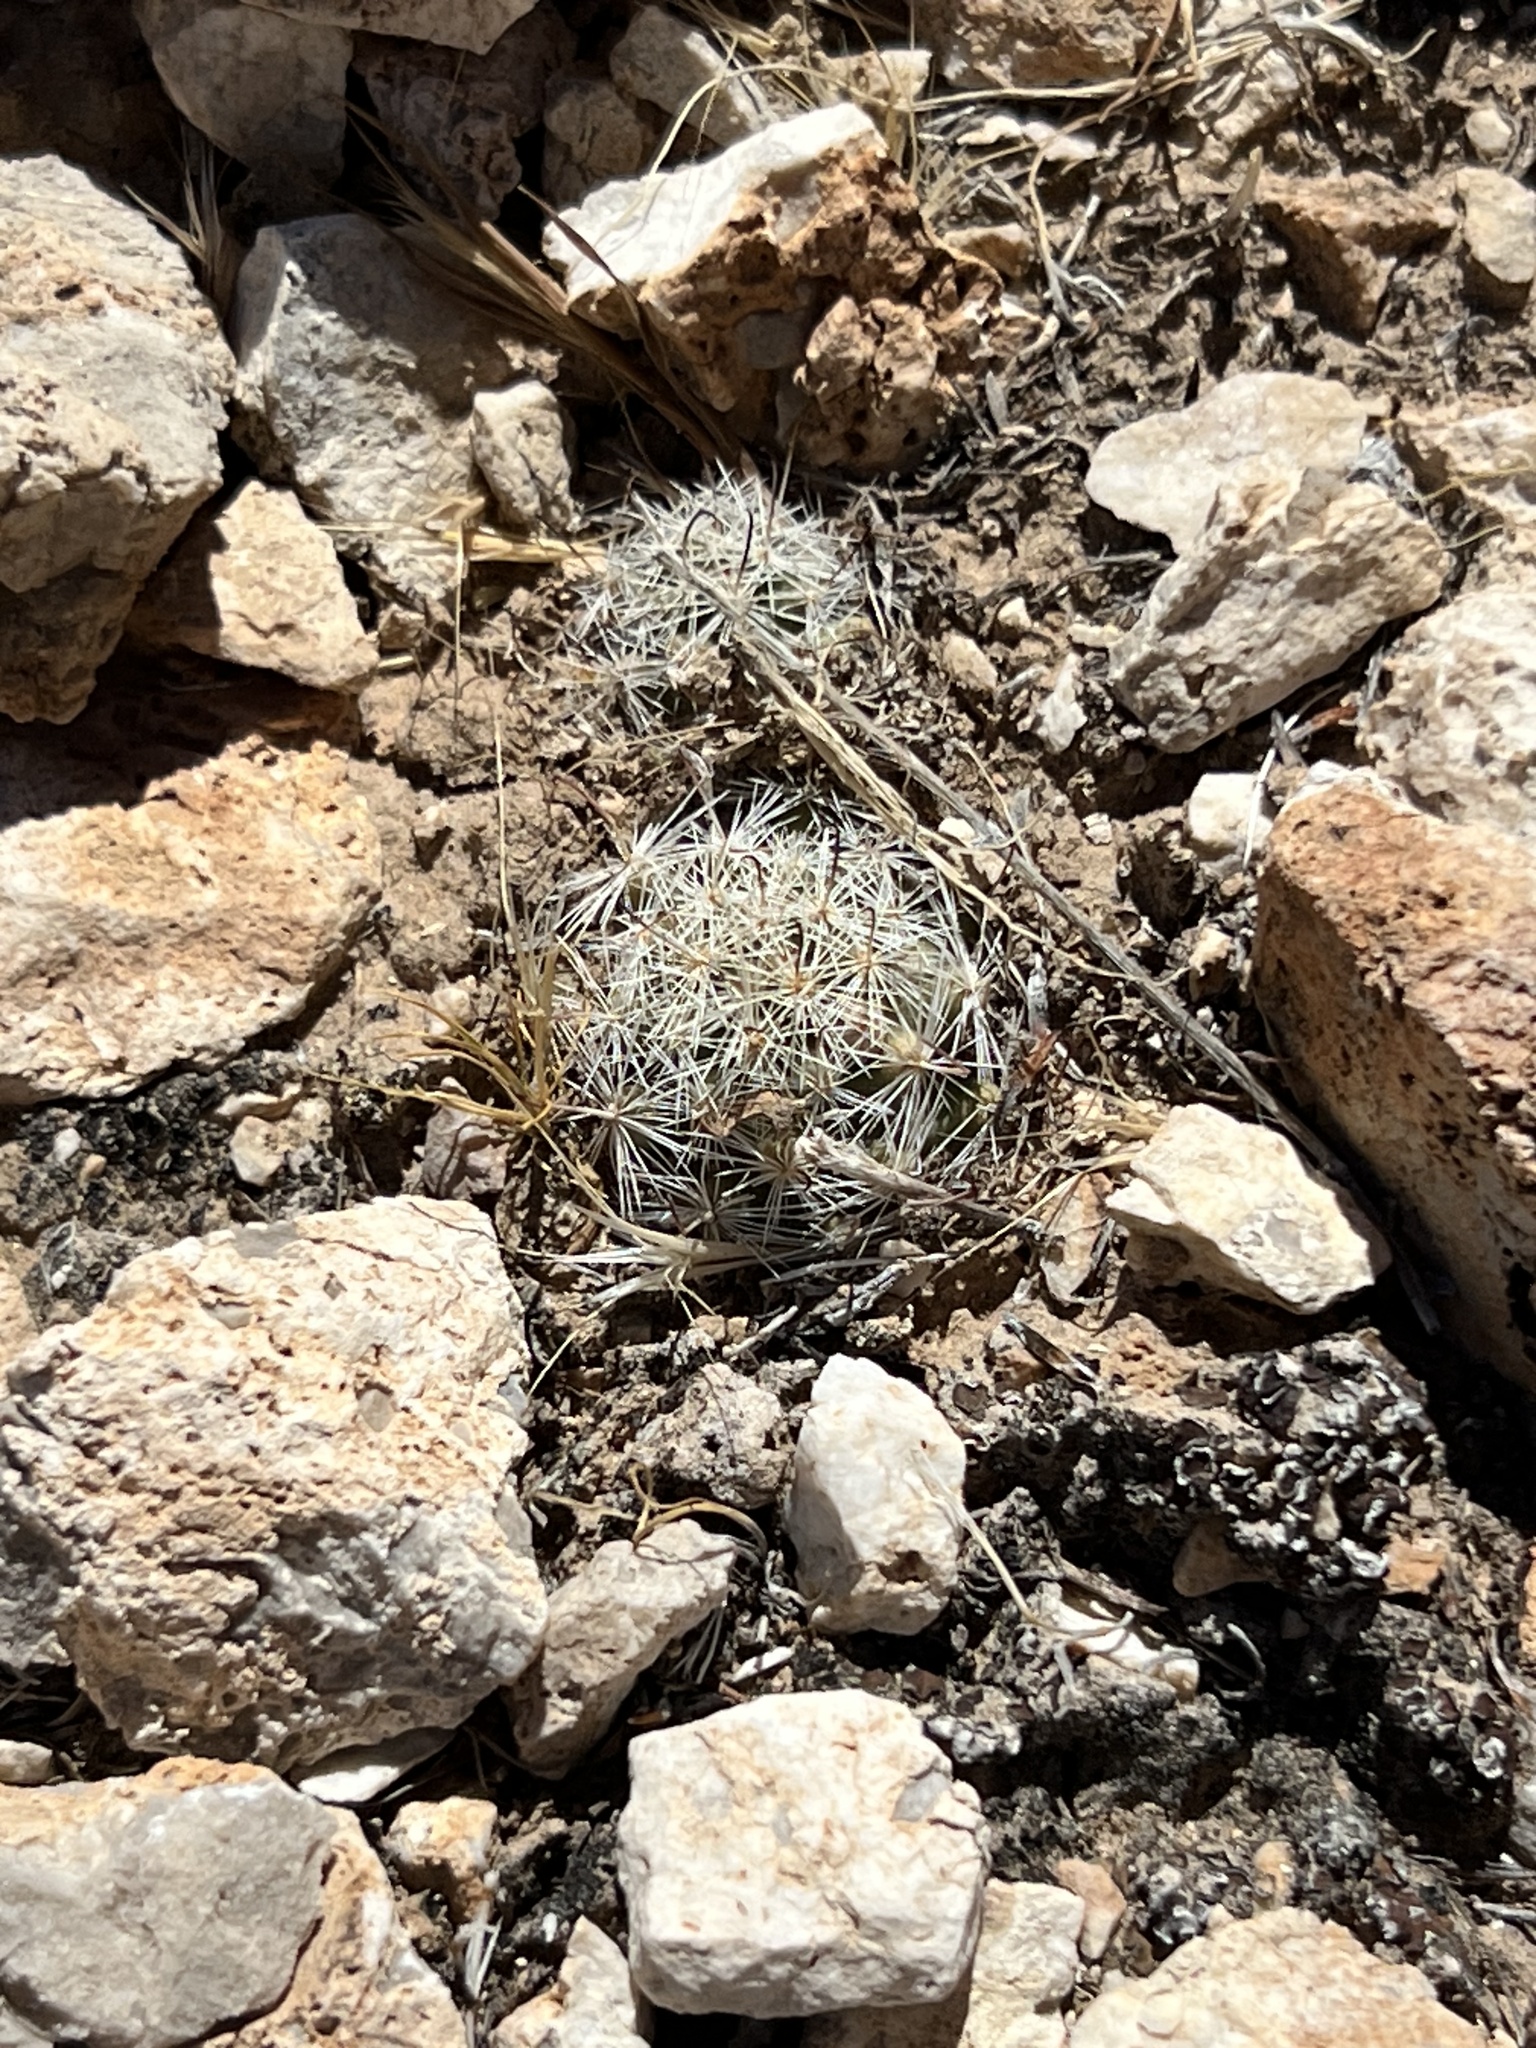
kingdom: Plantae
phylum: Tracheophyta
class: Magnoliopsida
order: Caryophyllales
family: Cactaceae
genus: Pelecyphora
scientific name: Pelecyphora dasyacantha
